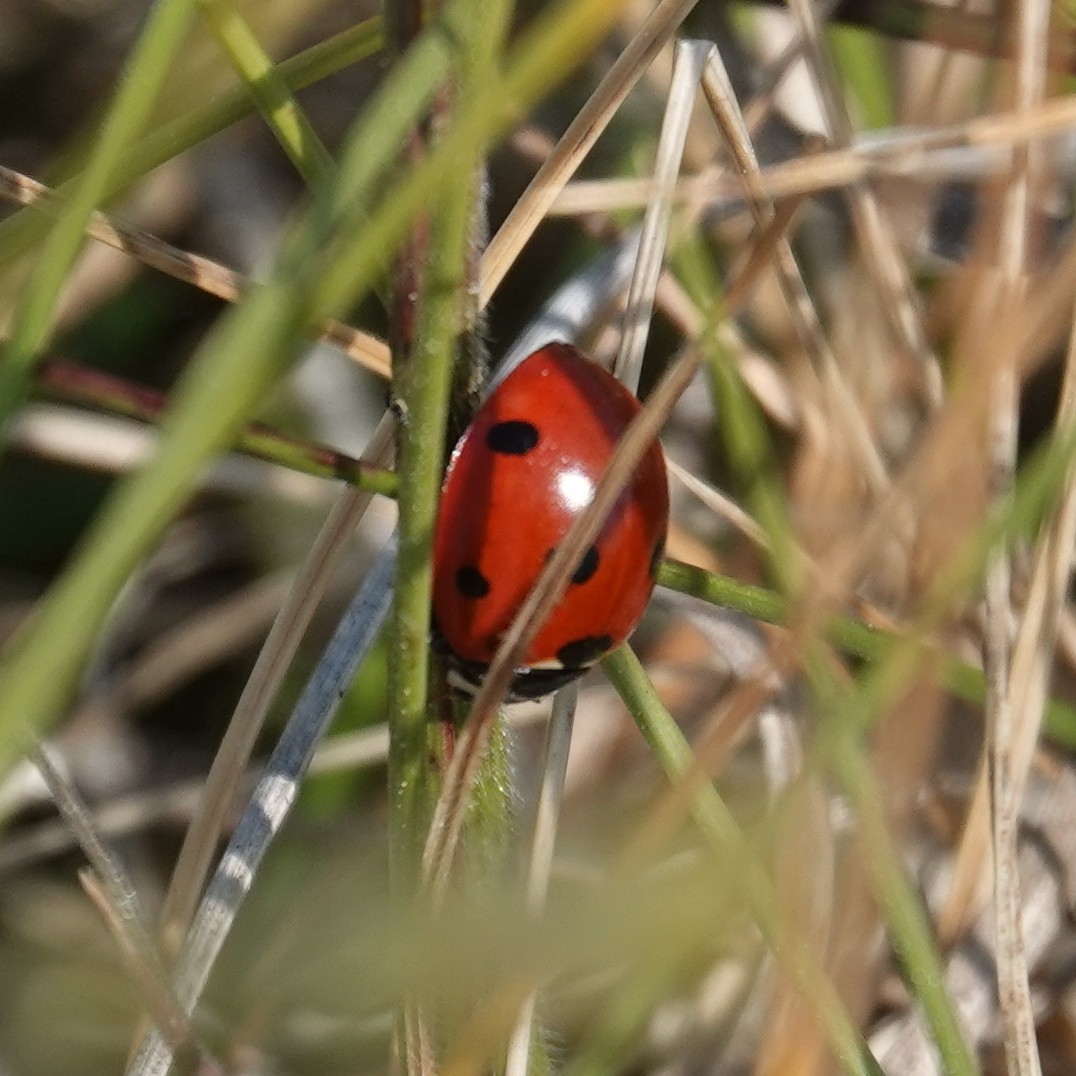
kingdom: Animalia
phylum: Arthropoda
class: Insecta
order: Coleoptera
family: Coccinellidae
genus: Coccinella
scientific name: Coccinella septempunctata
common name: Sevenspotted lady beetle
